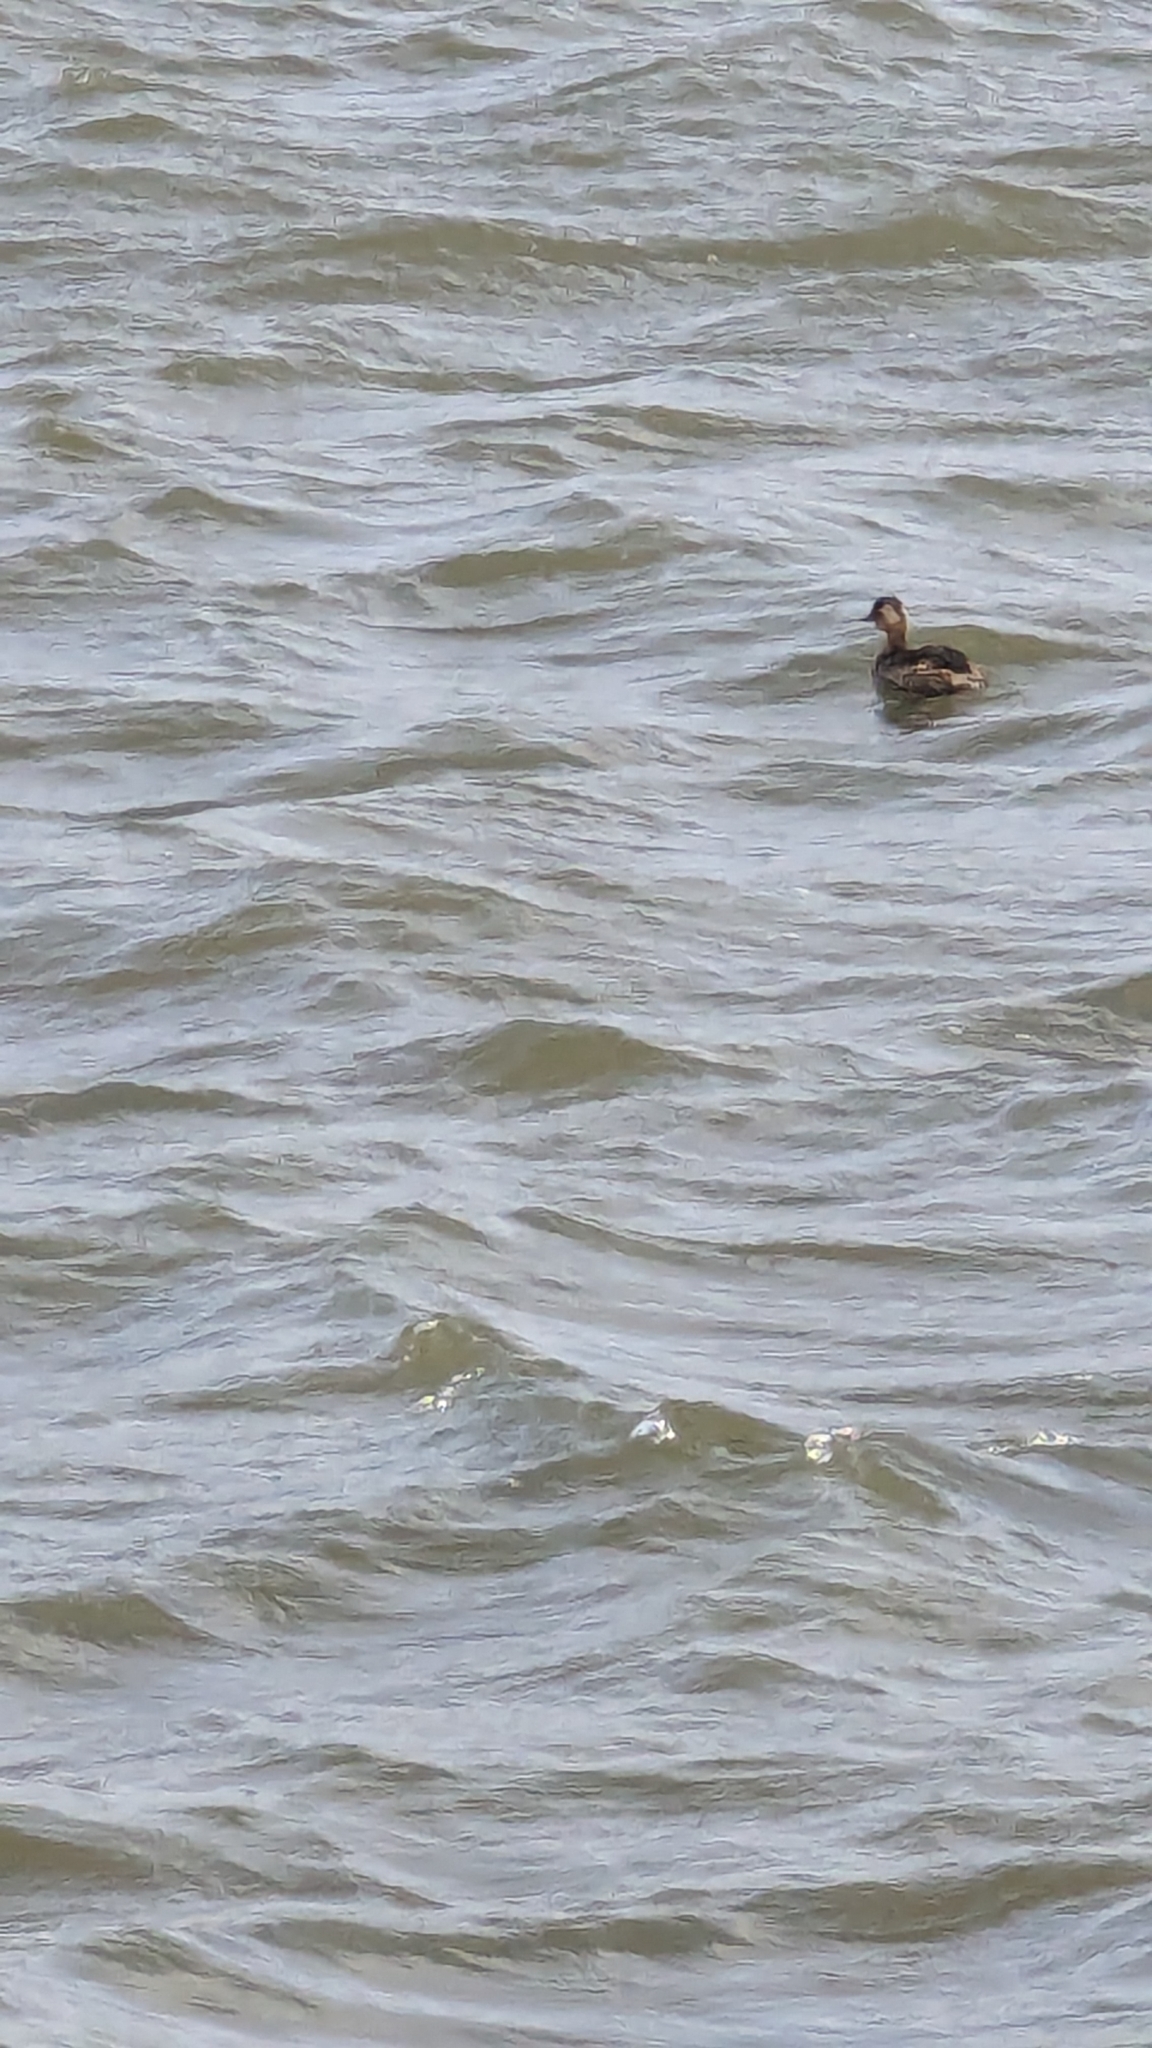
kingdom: Animalia
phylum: Chordata
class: Aves
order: Podicipediformes
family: Podicipedidae
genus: Tachybaptus
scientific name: Tachybaptus ruficollis
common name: Little grebe
